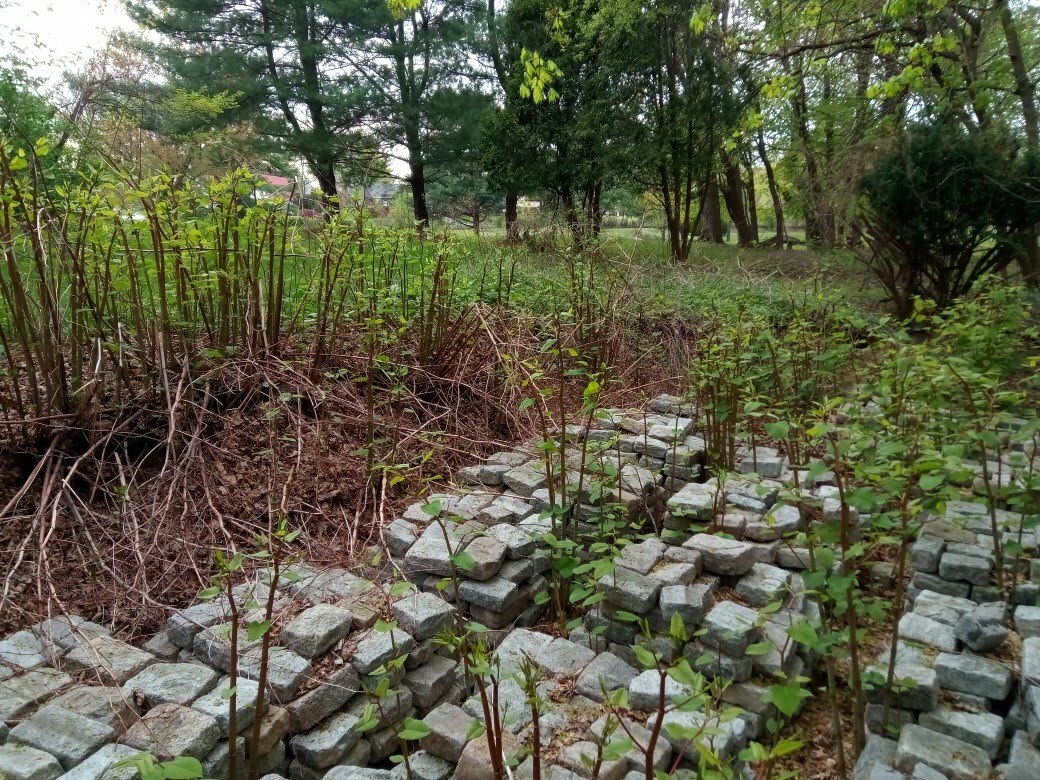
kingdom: Plantae
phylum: Tracheophyta
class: Magnoliopsida
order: Caryophyllales
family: Polygonaceae
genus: Reynoutria
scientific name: Reynoutria japonica
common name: Japanese knotweed
